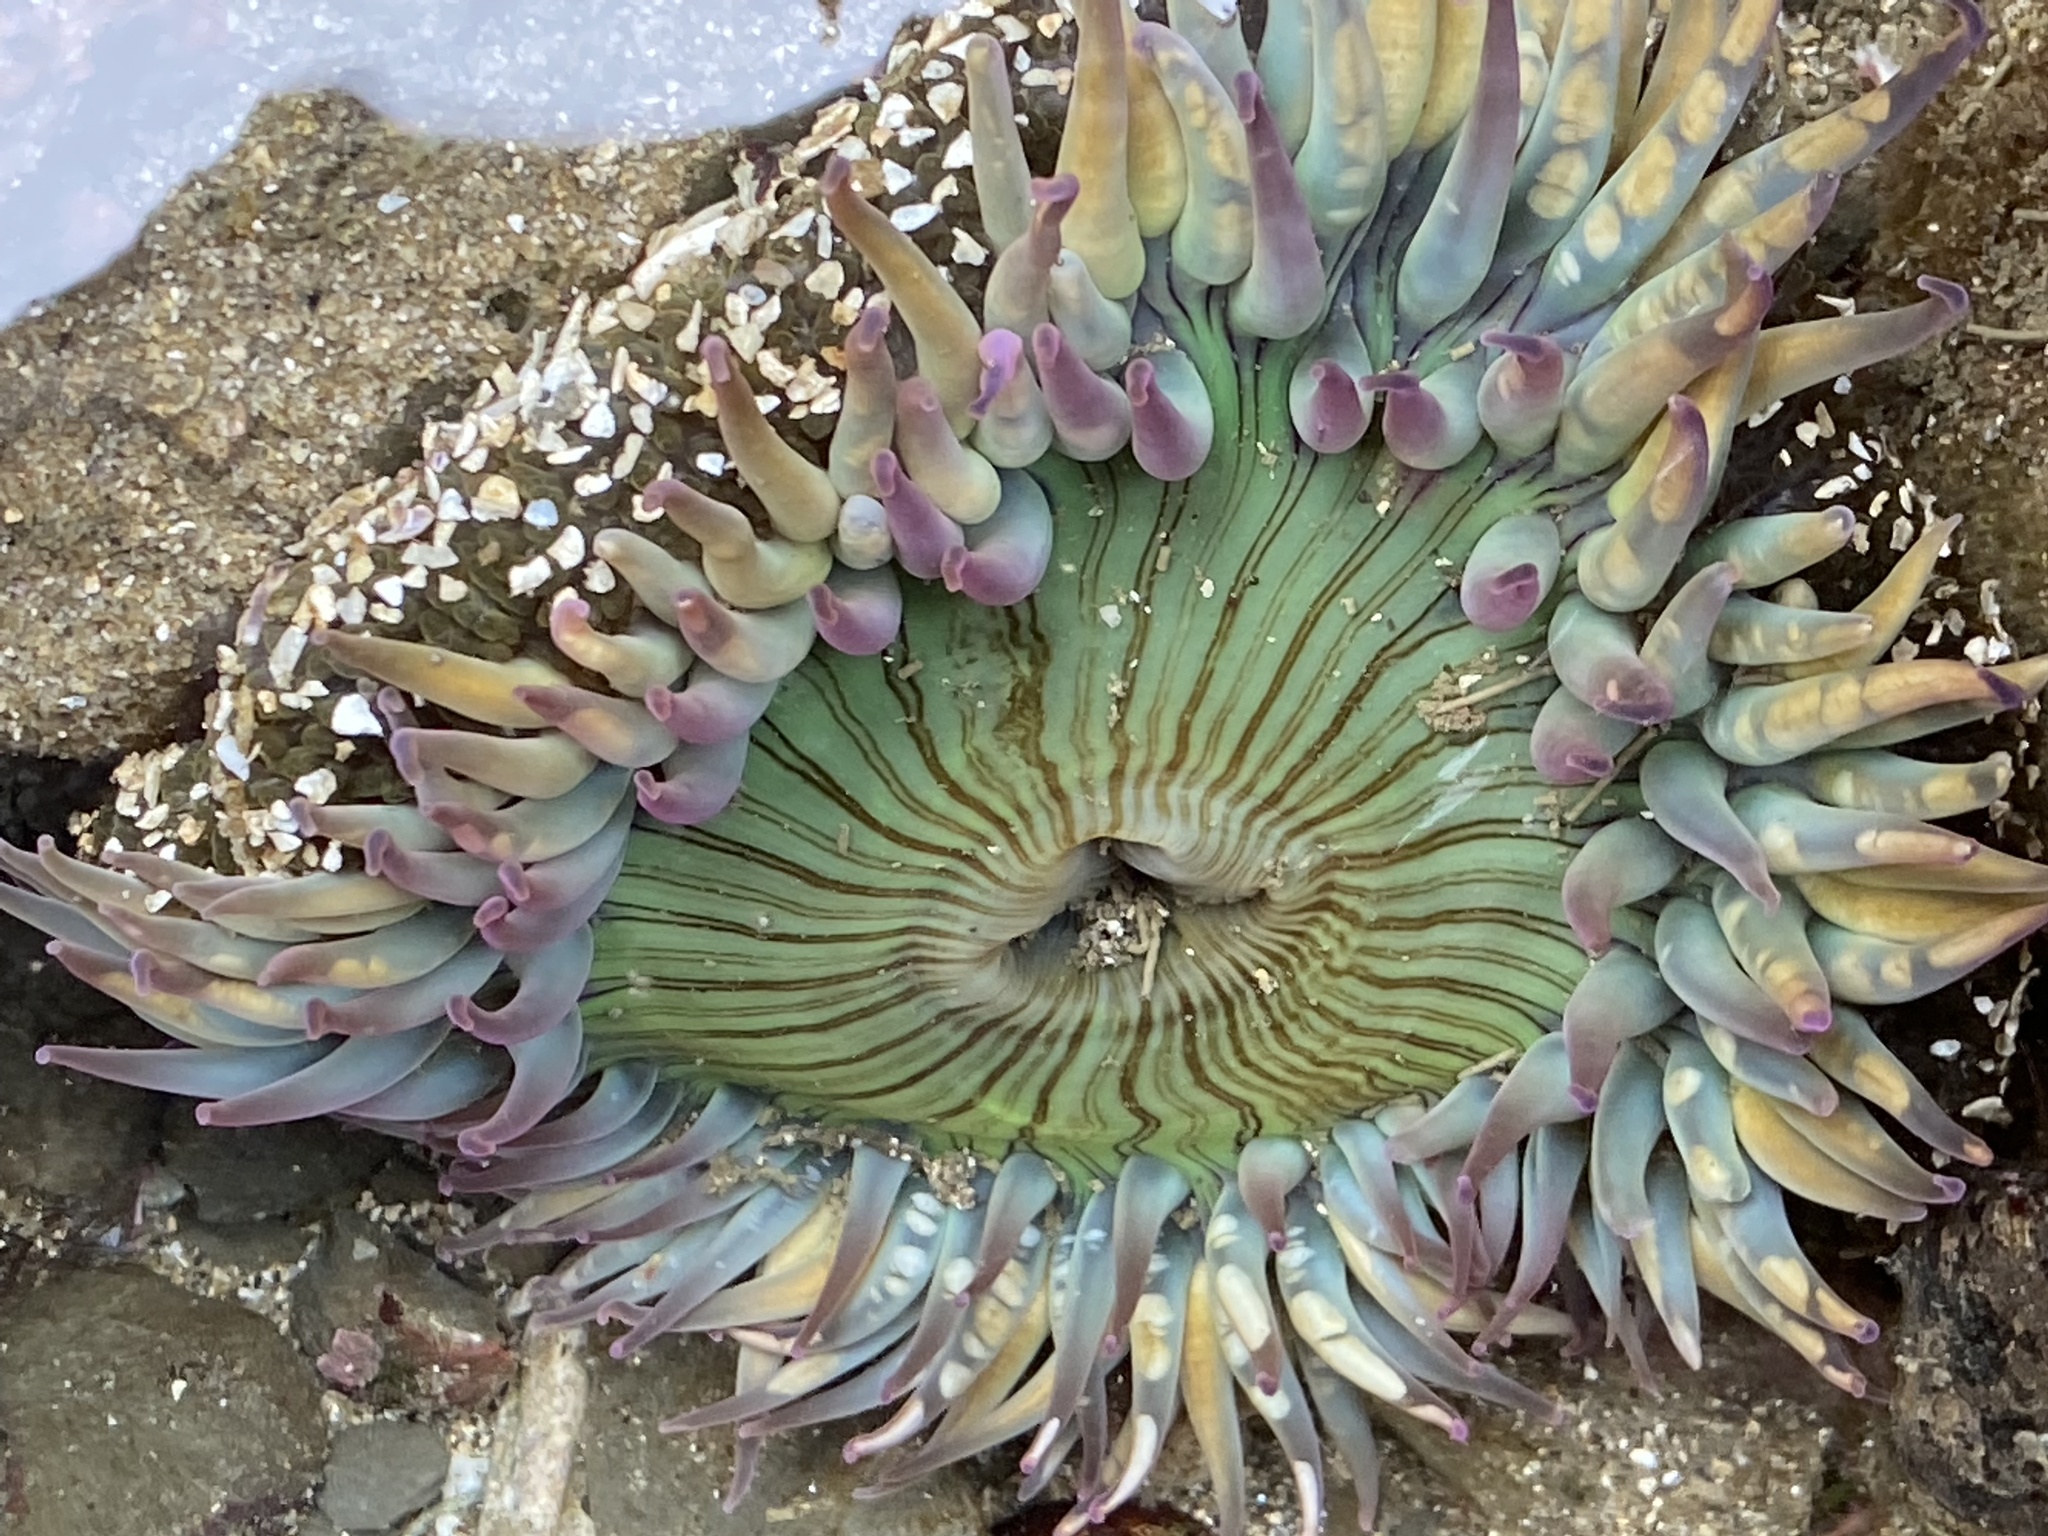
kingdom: Animalia
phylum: Cnidaria
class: Anthozoa
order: Actiniaria
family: Actiniidae
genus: Anthopleura
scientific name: Anthopleura sola
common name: Sun anemone
